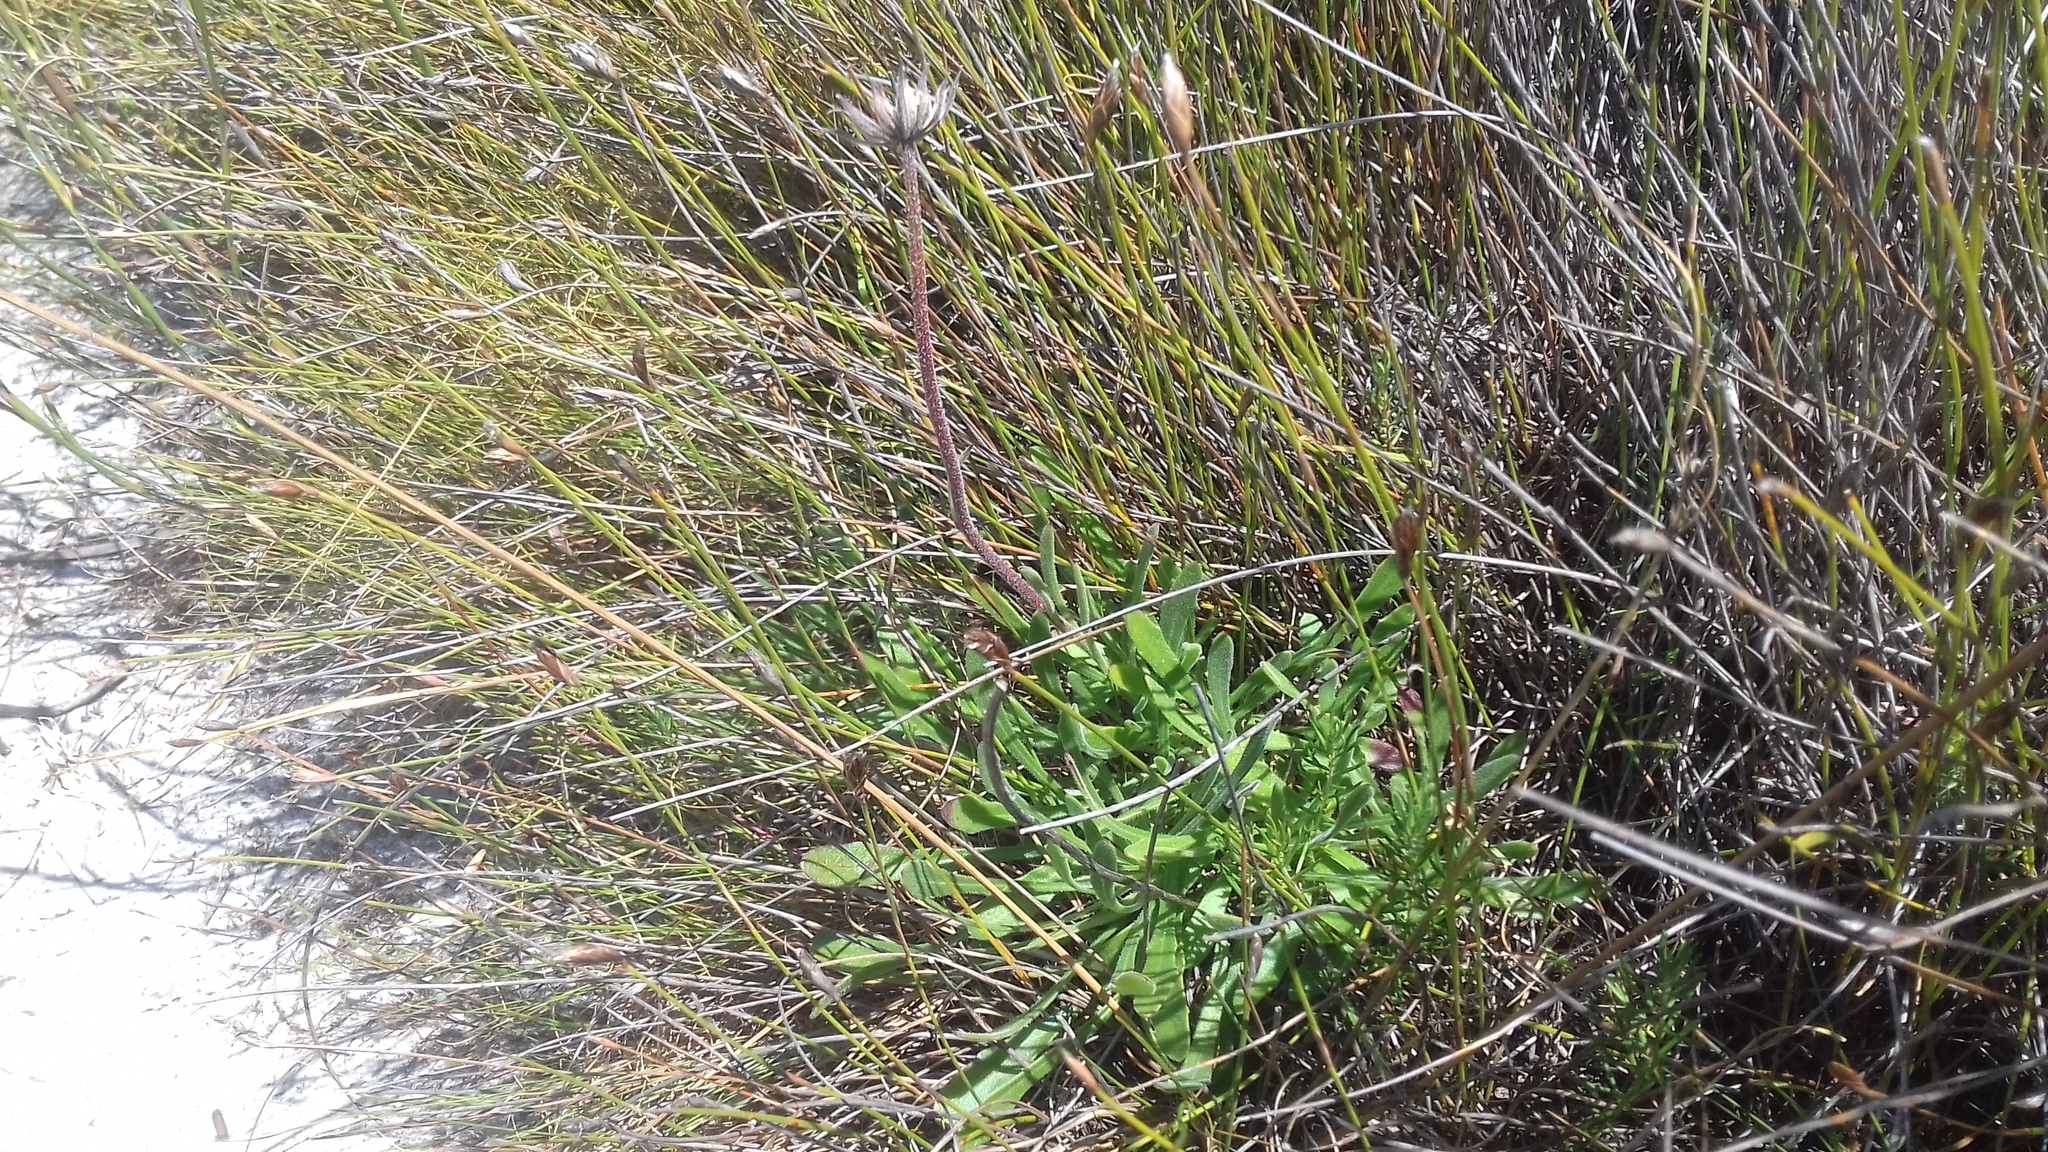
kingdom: Plantae
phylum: Tracheophyta
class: Magnoliopsida
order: Asterales
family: Asteraceae
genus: Dimorphotheca
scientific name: Dimorphotheca nudicaulis
